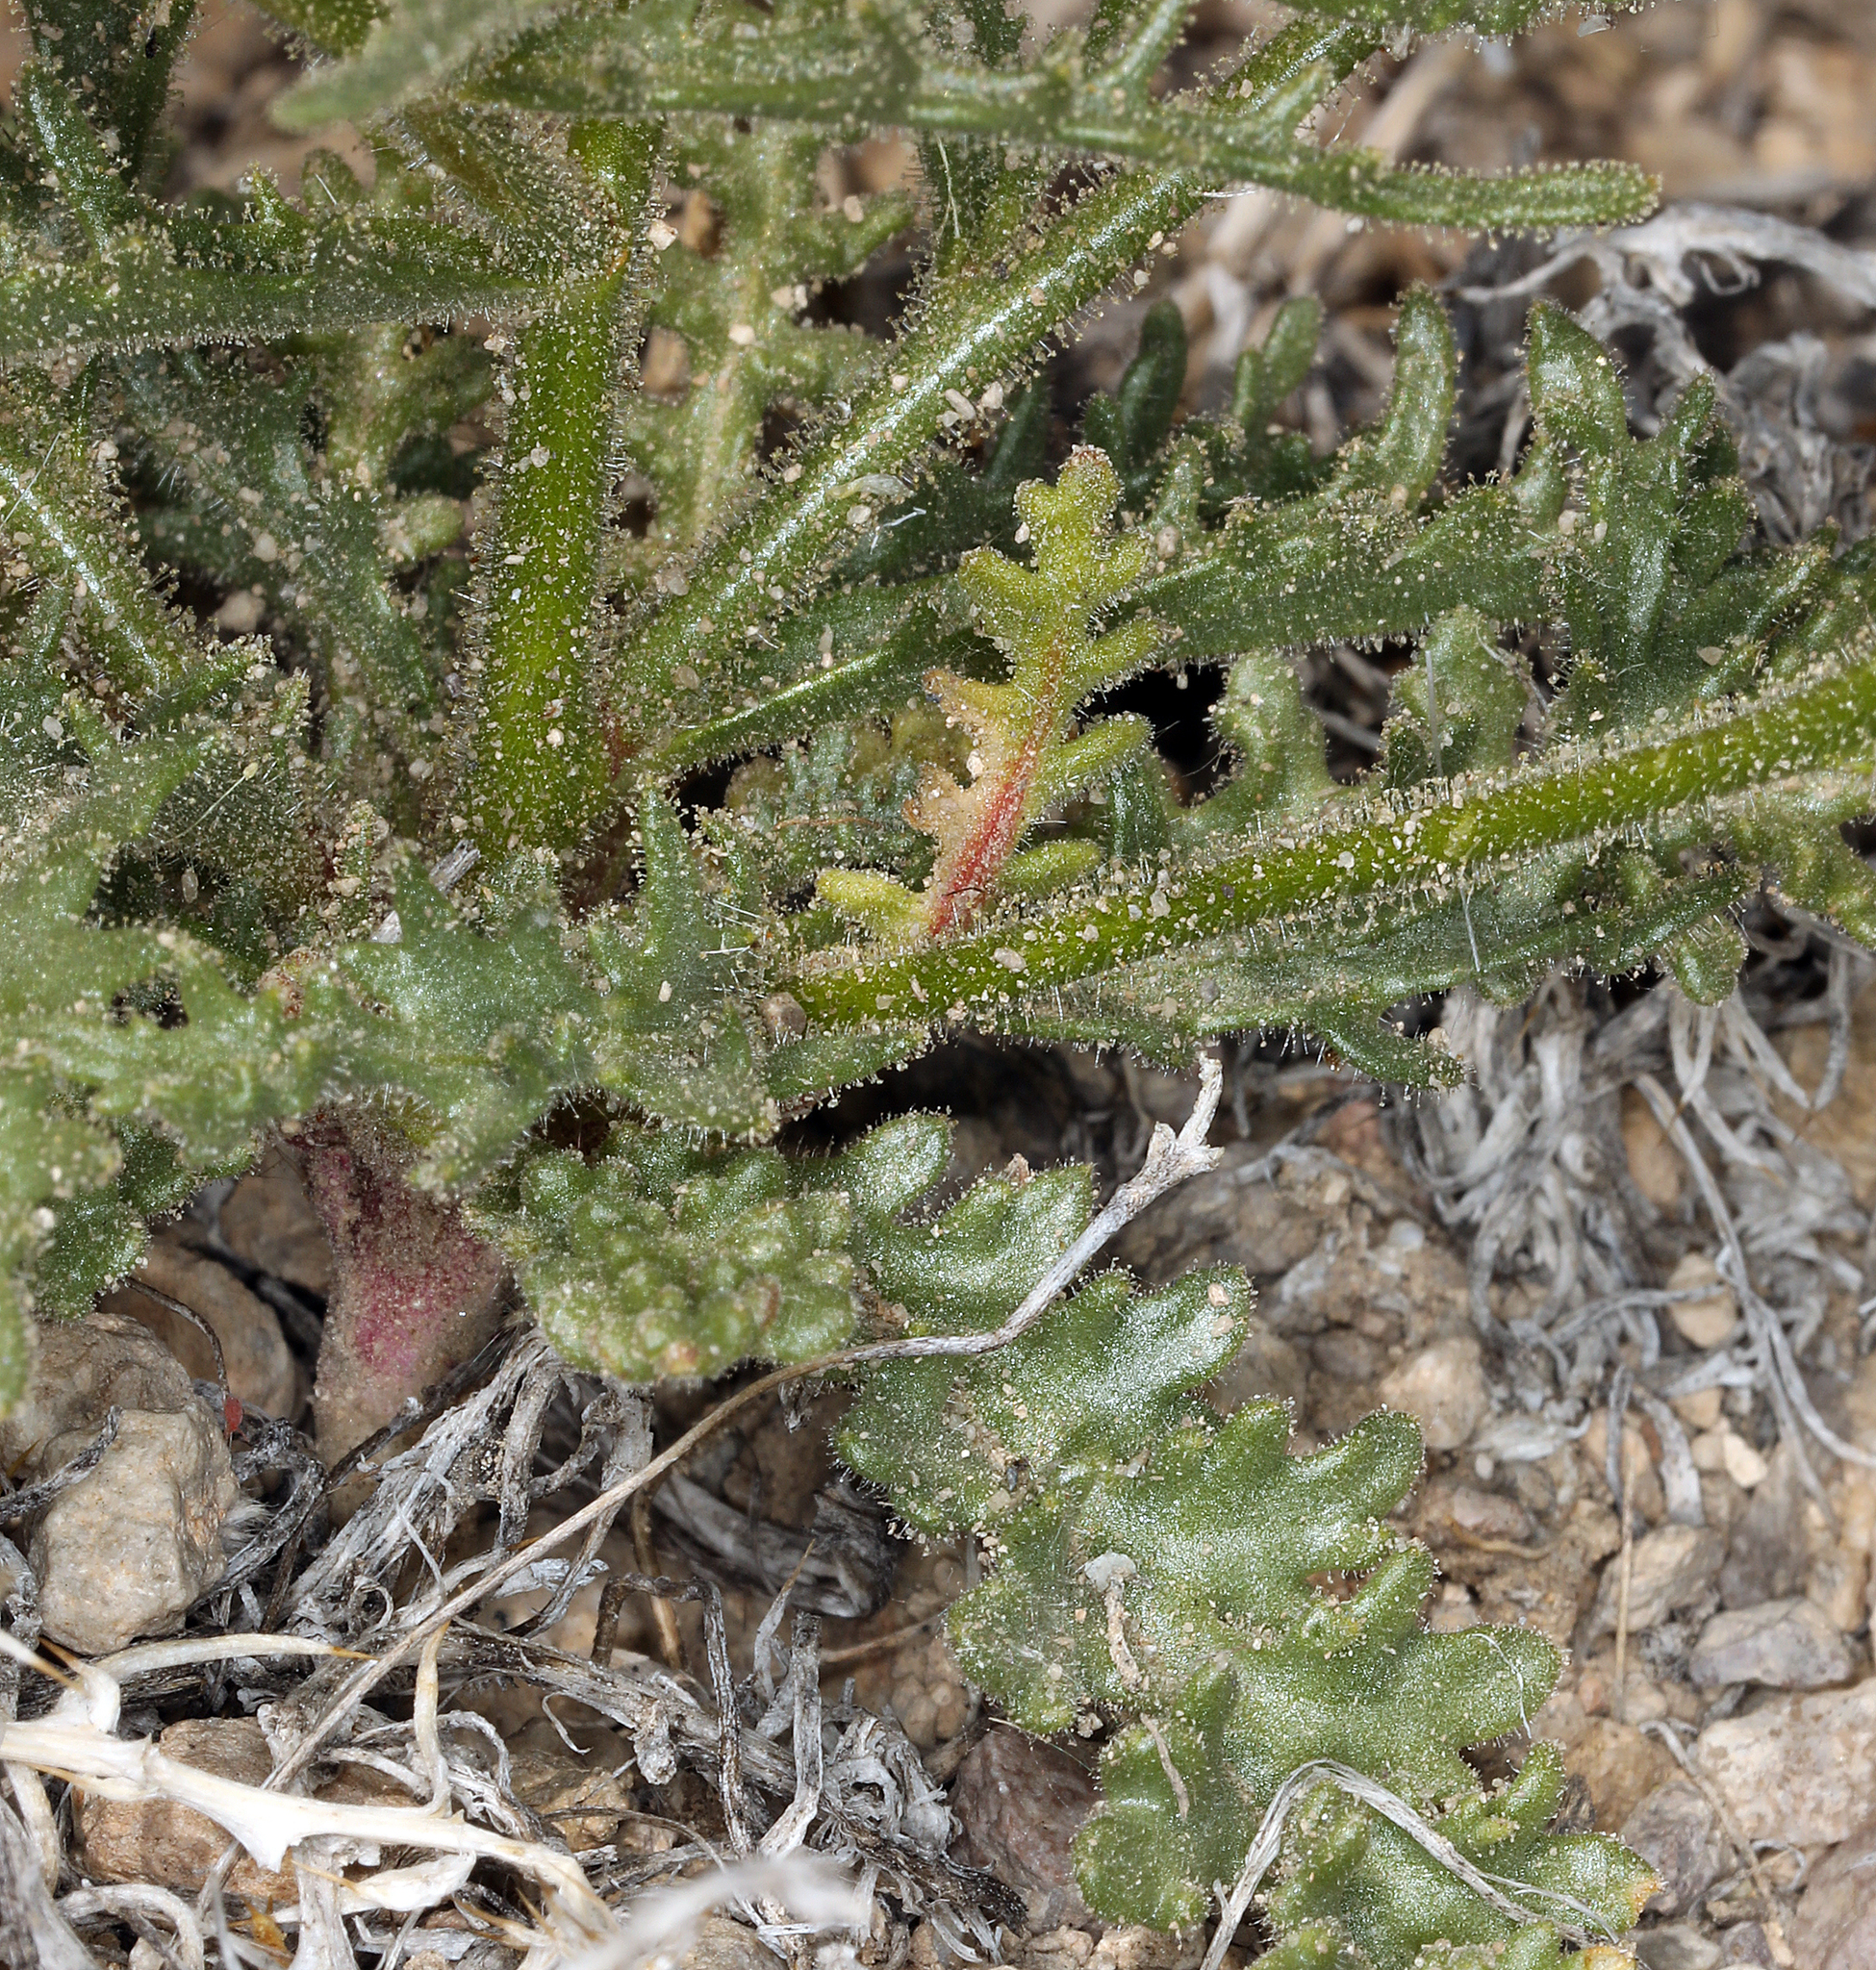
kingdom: Plantae
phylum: Tracheophyta
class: Magnoliopsida
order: Ericales
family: Polemoniaceae
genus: Aliciella
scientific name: Aliciella hutchinsifolia
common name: Desert pale gilia
